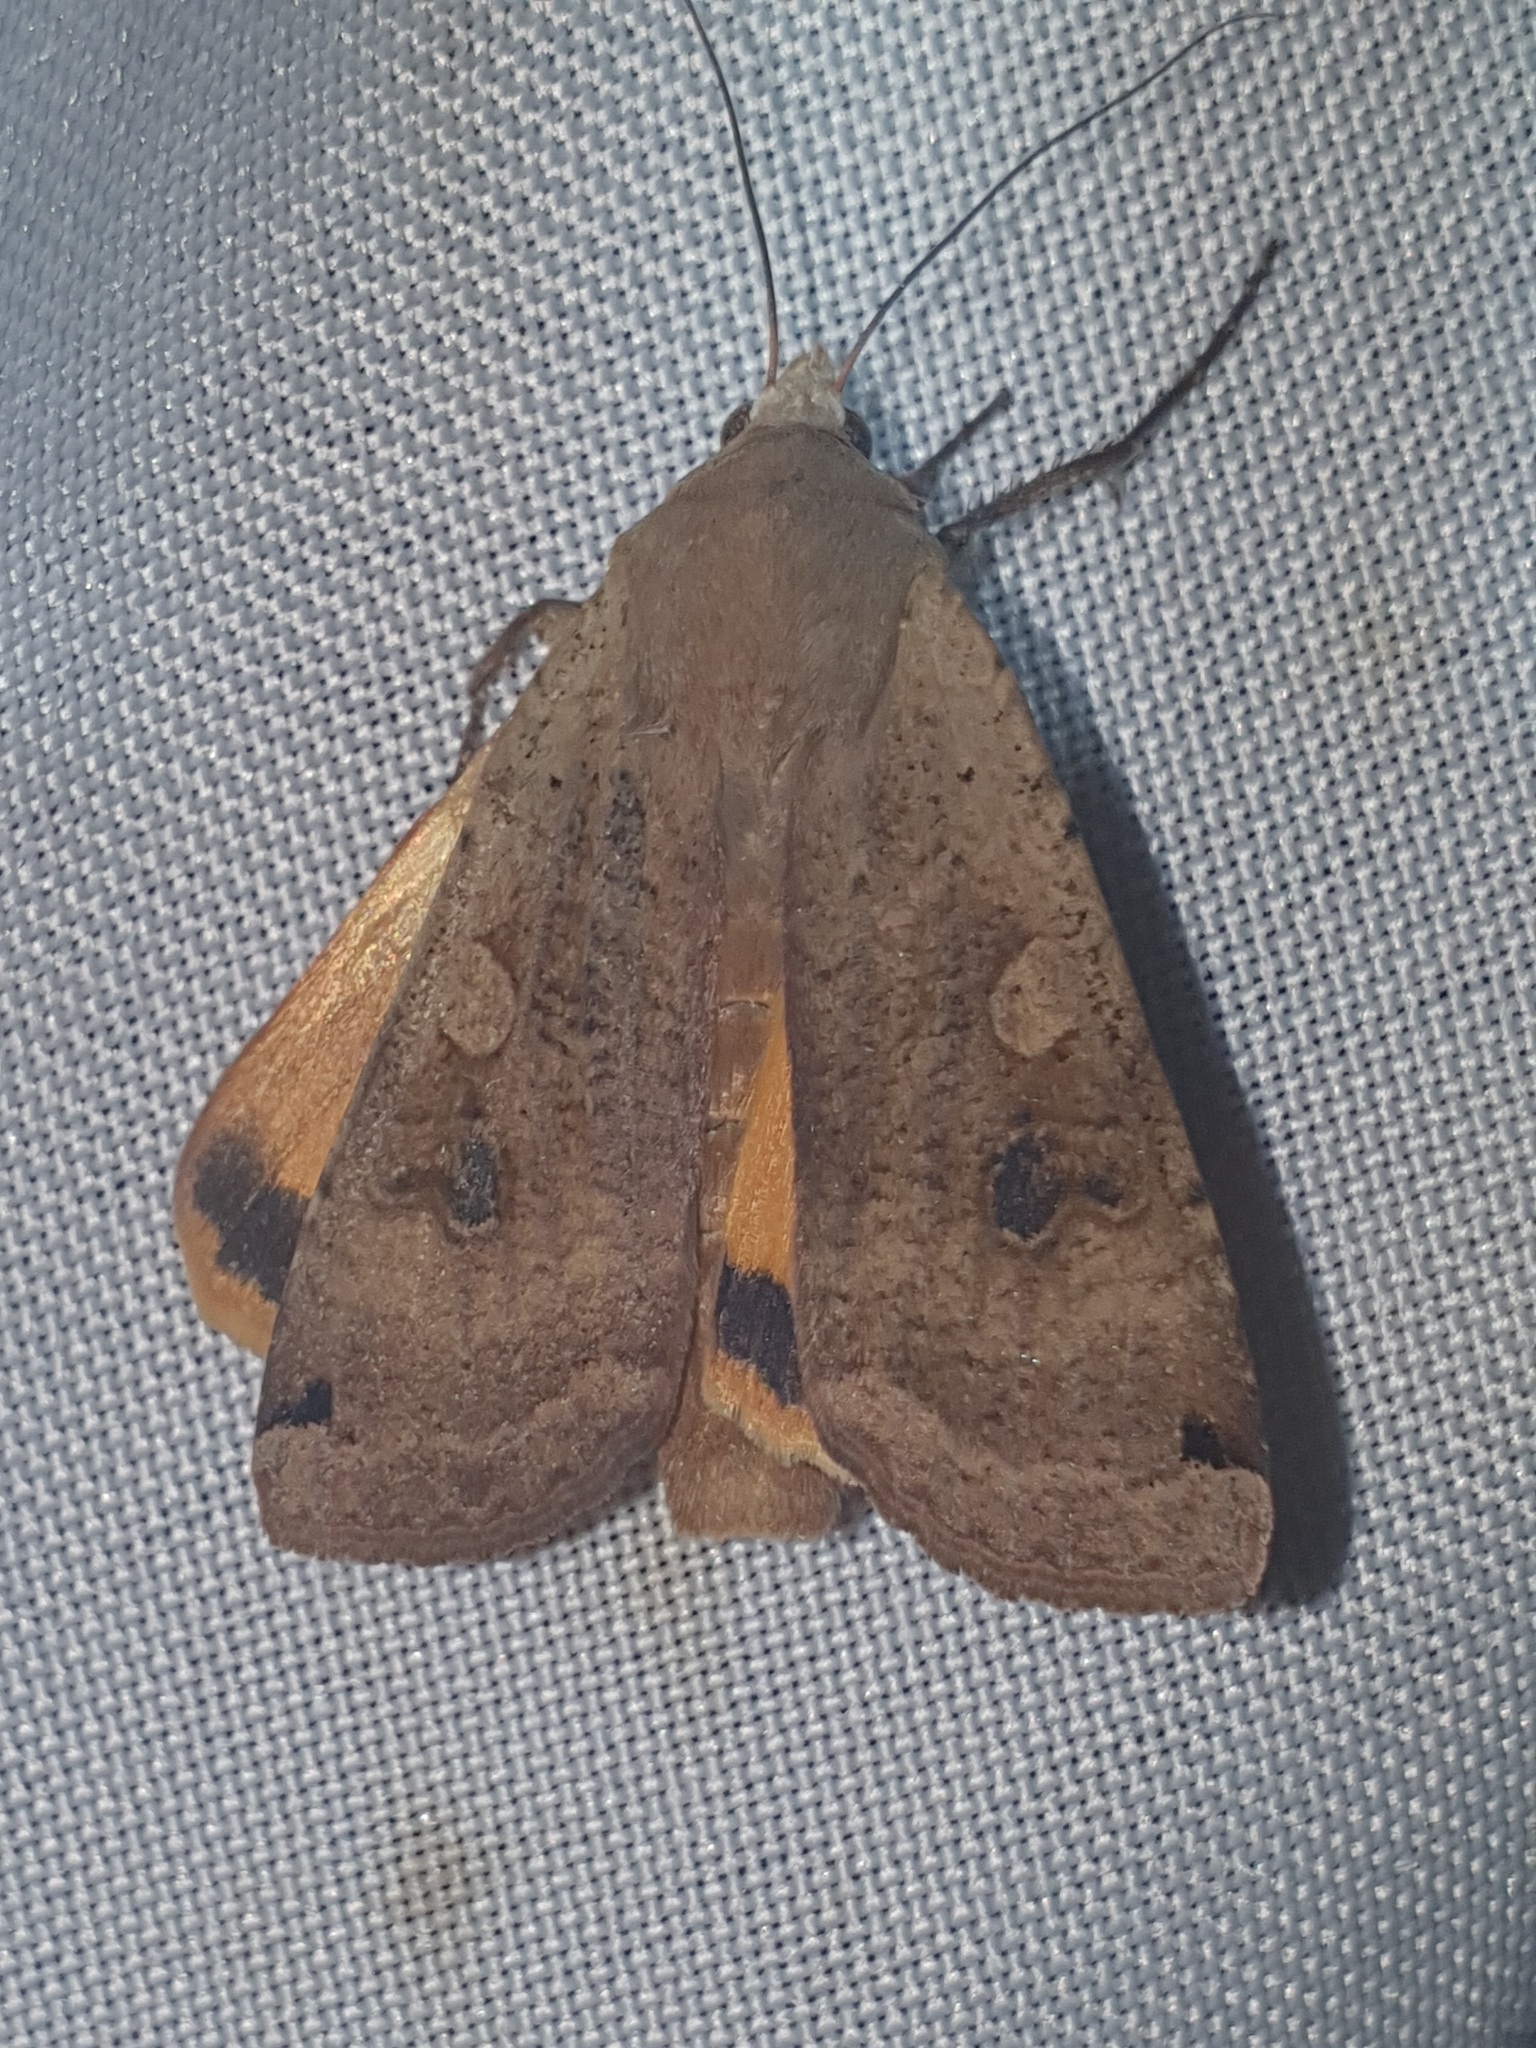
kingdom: Animalia
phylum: Arthropoda
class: Insecta
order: Lepidoptera
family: Noctuidae
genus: Noctua
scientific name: Noctua pronuba
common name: Large yellow underwing
